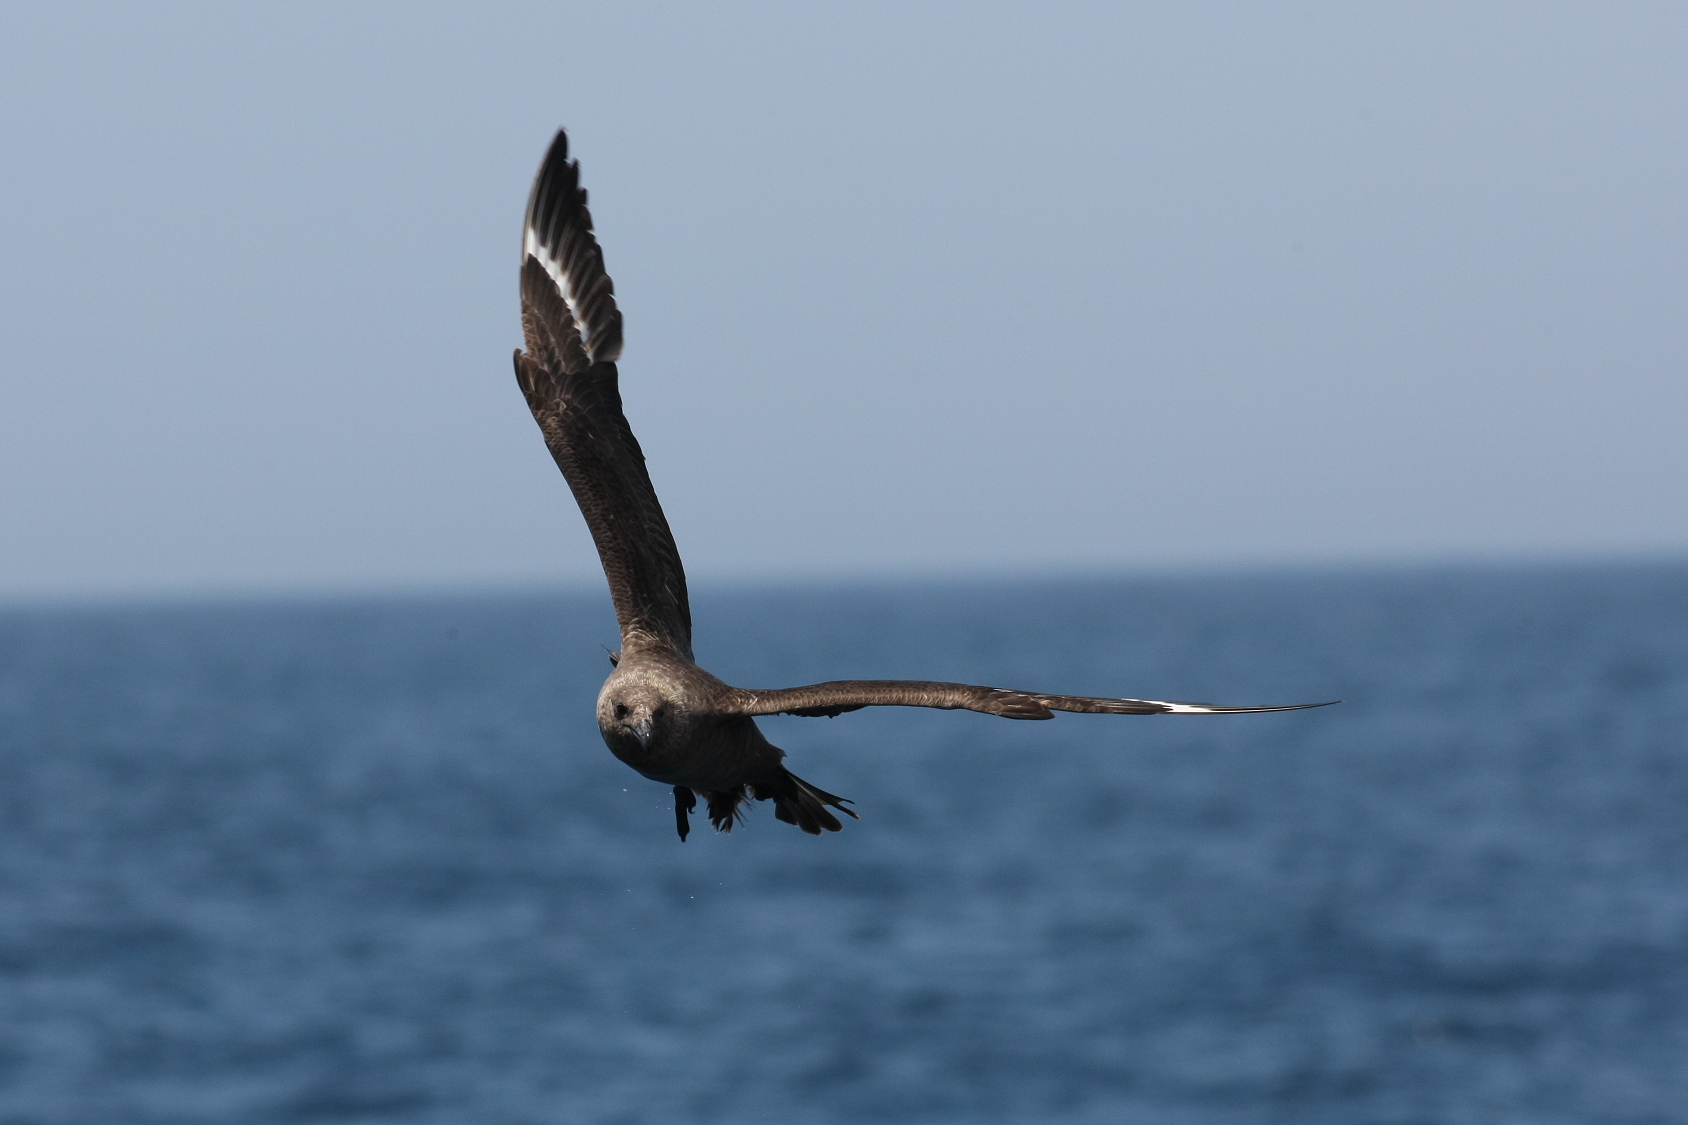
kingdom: Animalia
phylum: Chordata
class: Aves
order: Charadriiformes
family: Stercorariidae
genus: Stercorarius
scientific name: Stercorarius maccormicki
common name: South polar skua
